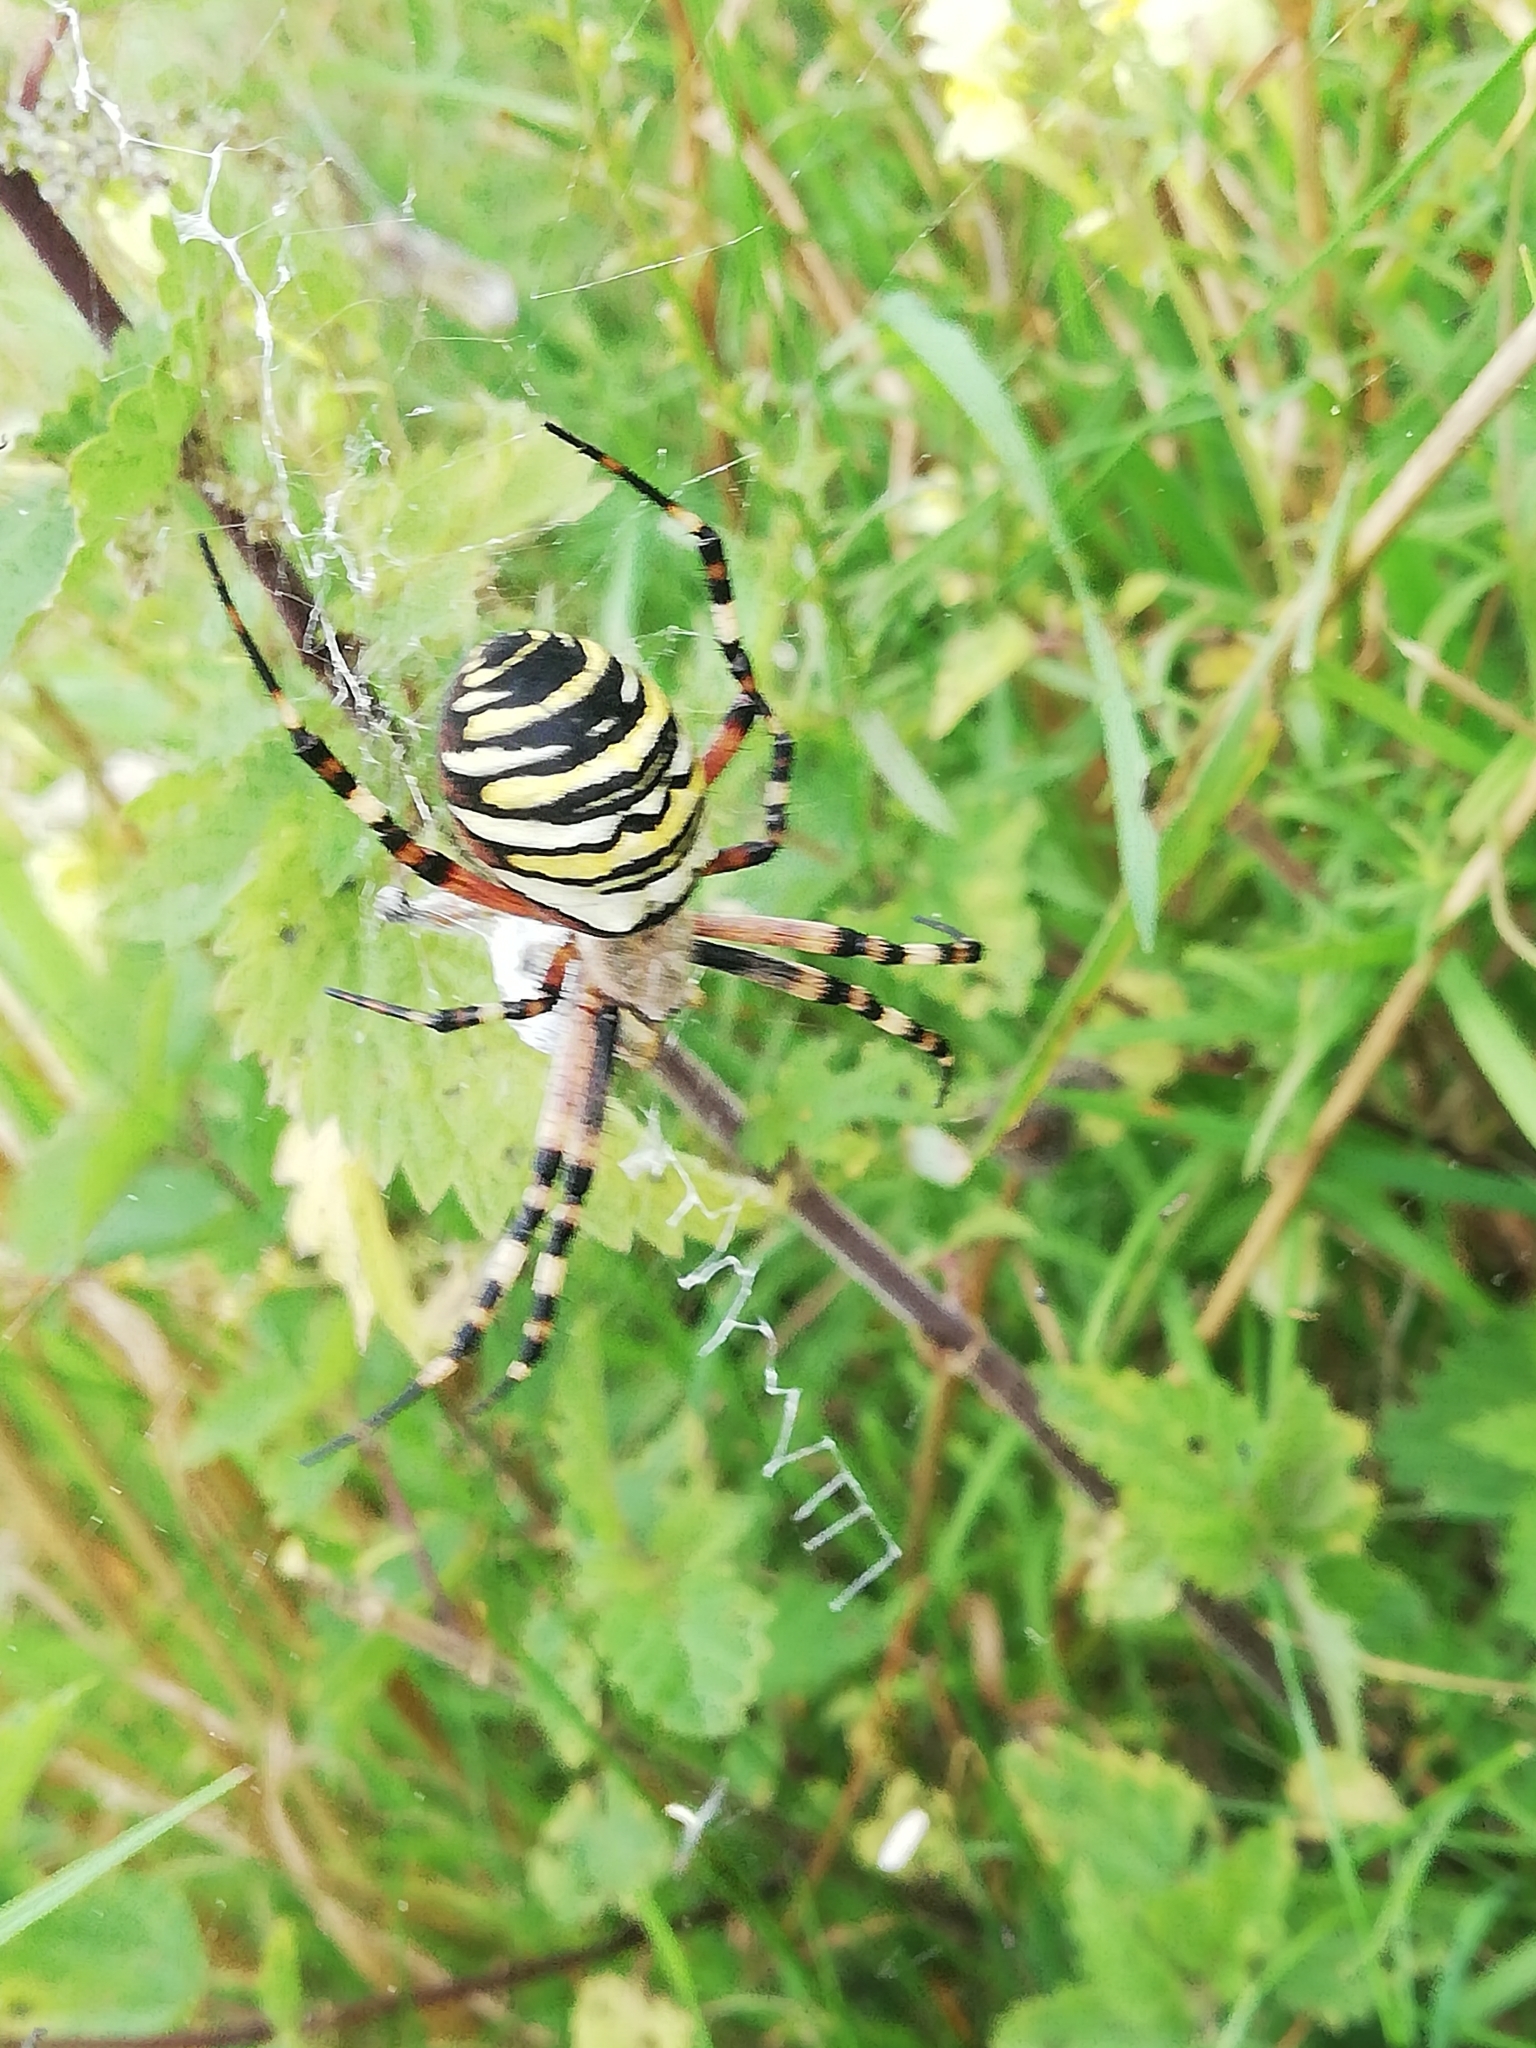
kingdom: Animalia
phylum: Arthropoda
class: Arachnida
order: Araneae
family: Araneidae
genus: Argiope
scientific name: Argiope bruennichi
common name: Wasp spider
